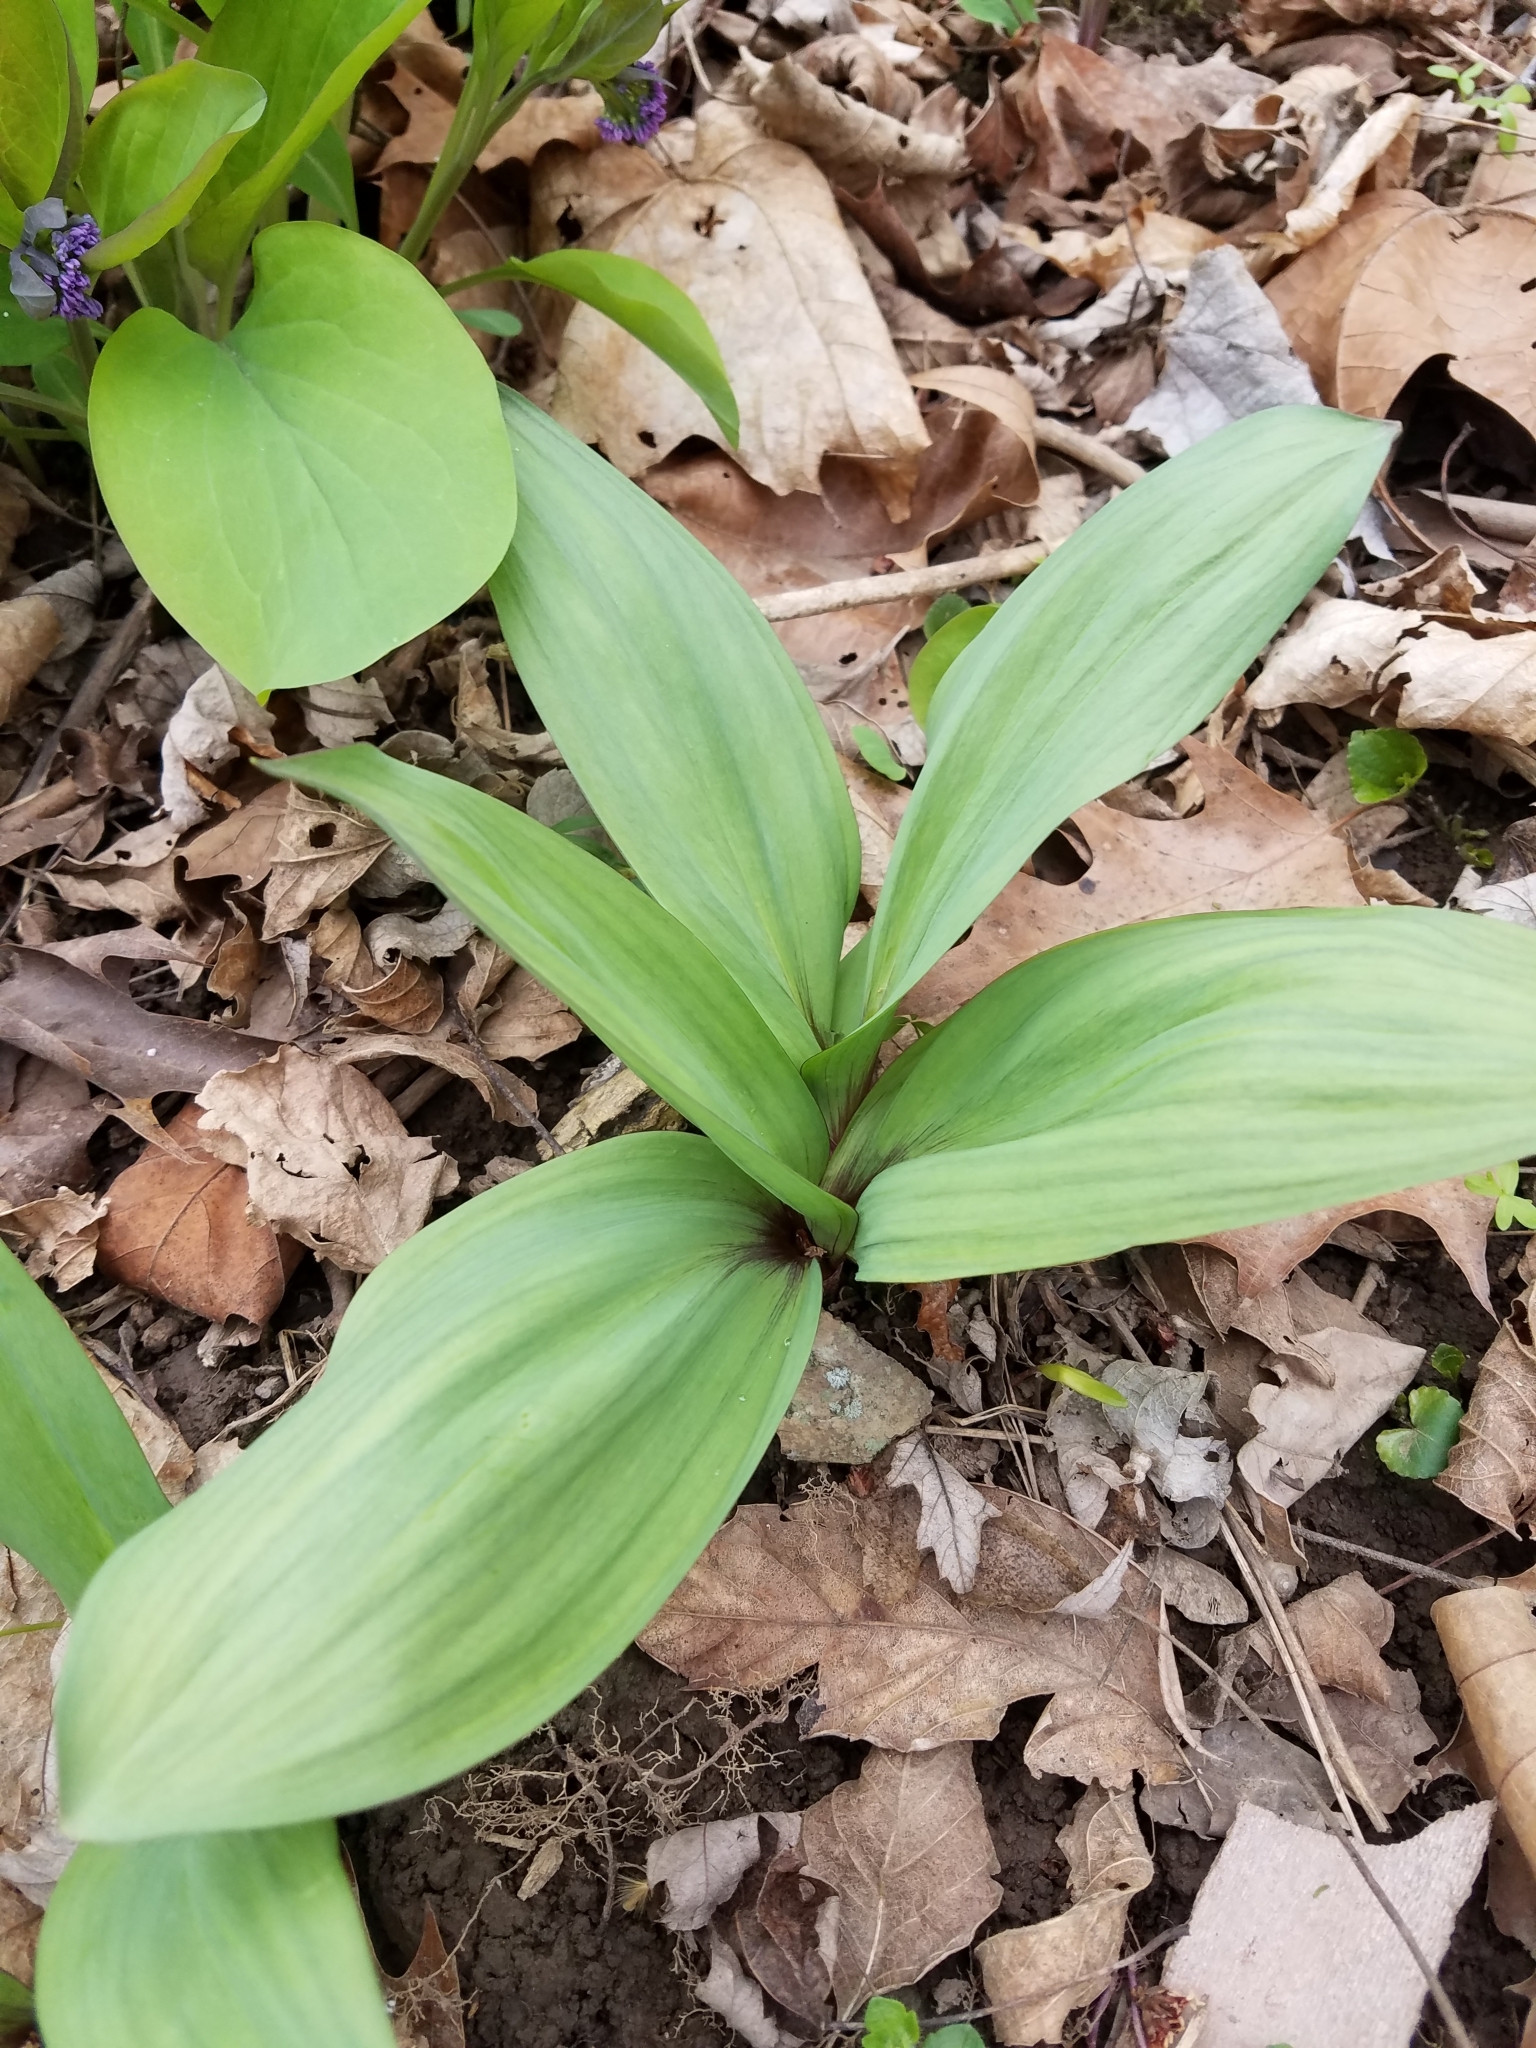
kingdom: Plantae
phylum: Tracheophyta
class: Liliopsida
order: Asparagales
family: Amaryllidaceae
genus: Allium
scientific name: Allium tricoccum
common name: Ramp
